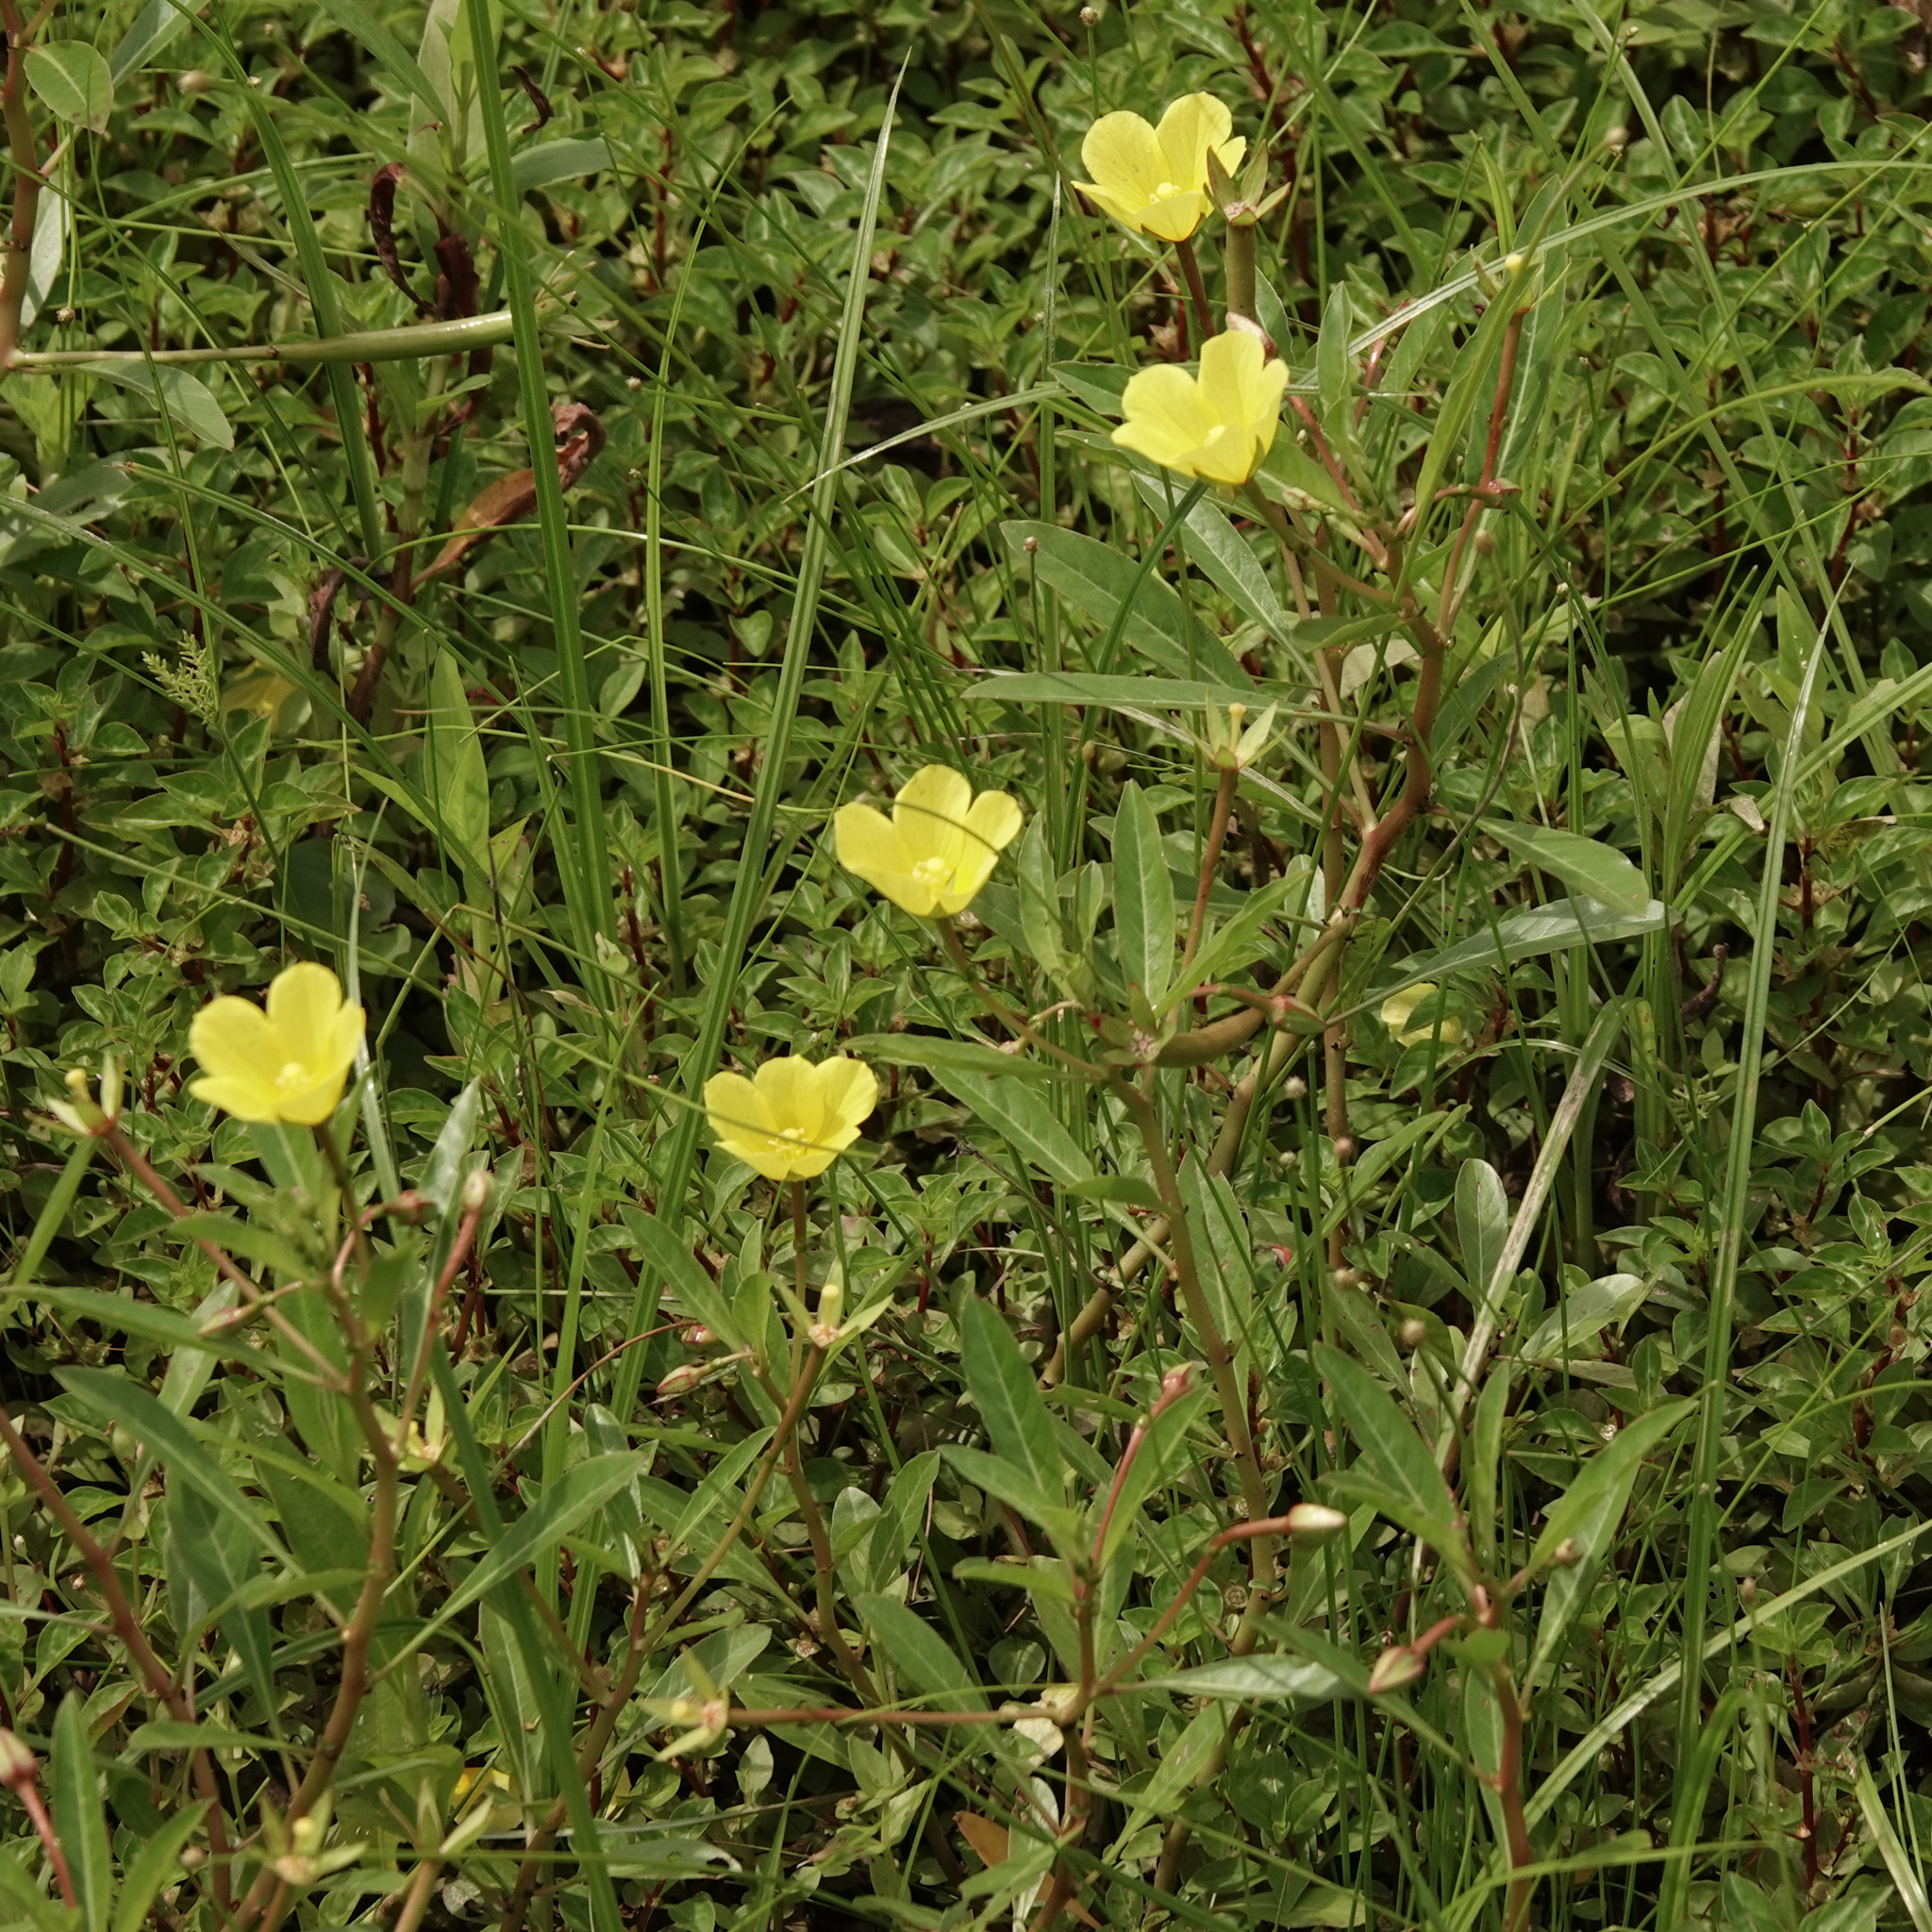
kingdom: Plantae
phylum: Tracheophyta
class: Magnoliopsida
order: Myrtales
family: Onagraceae
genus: Ludwigia
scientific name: Ludwigia hexapetala
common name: Water-primrose
